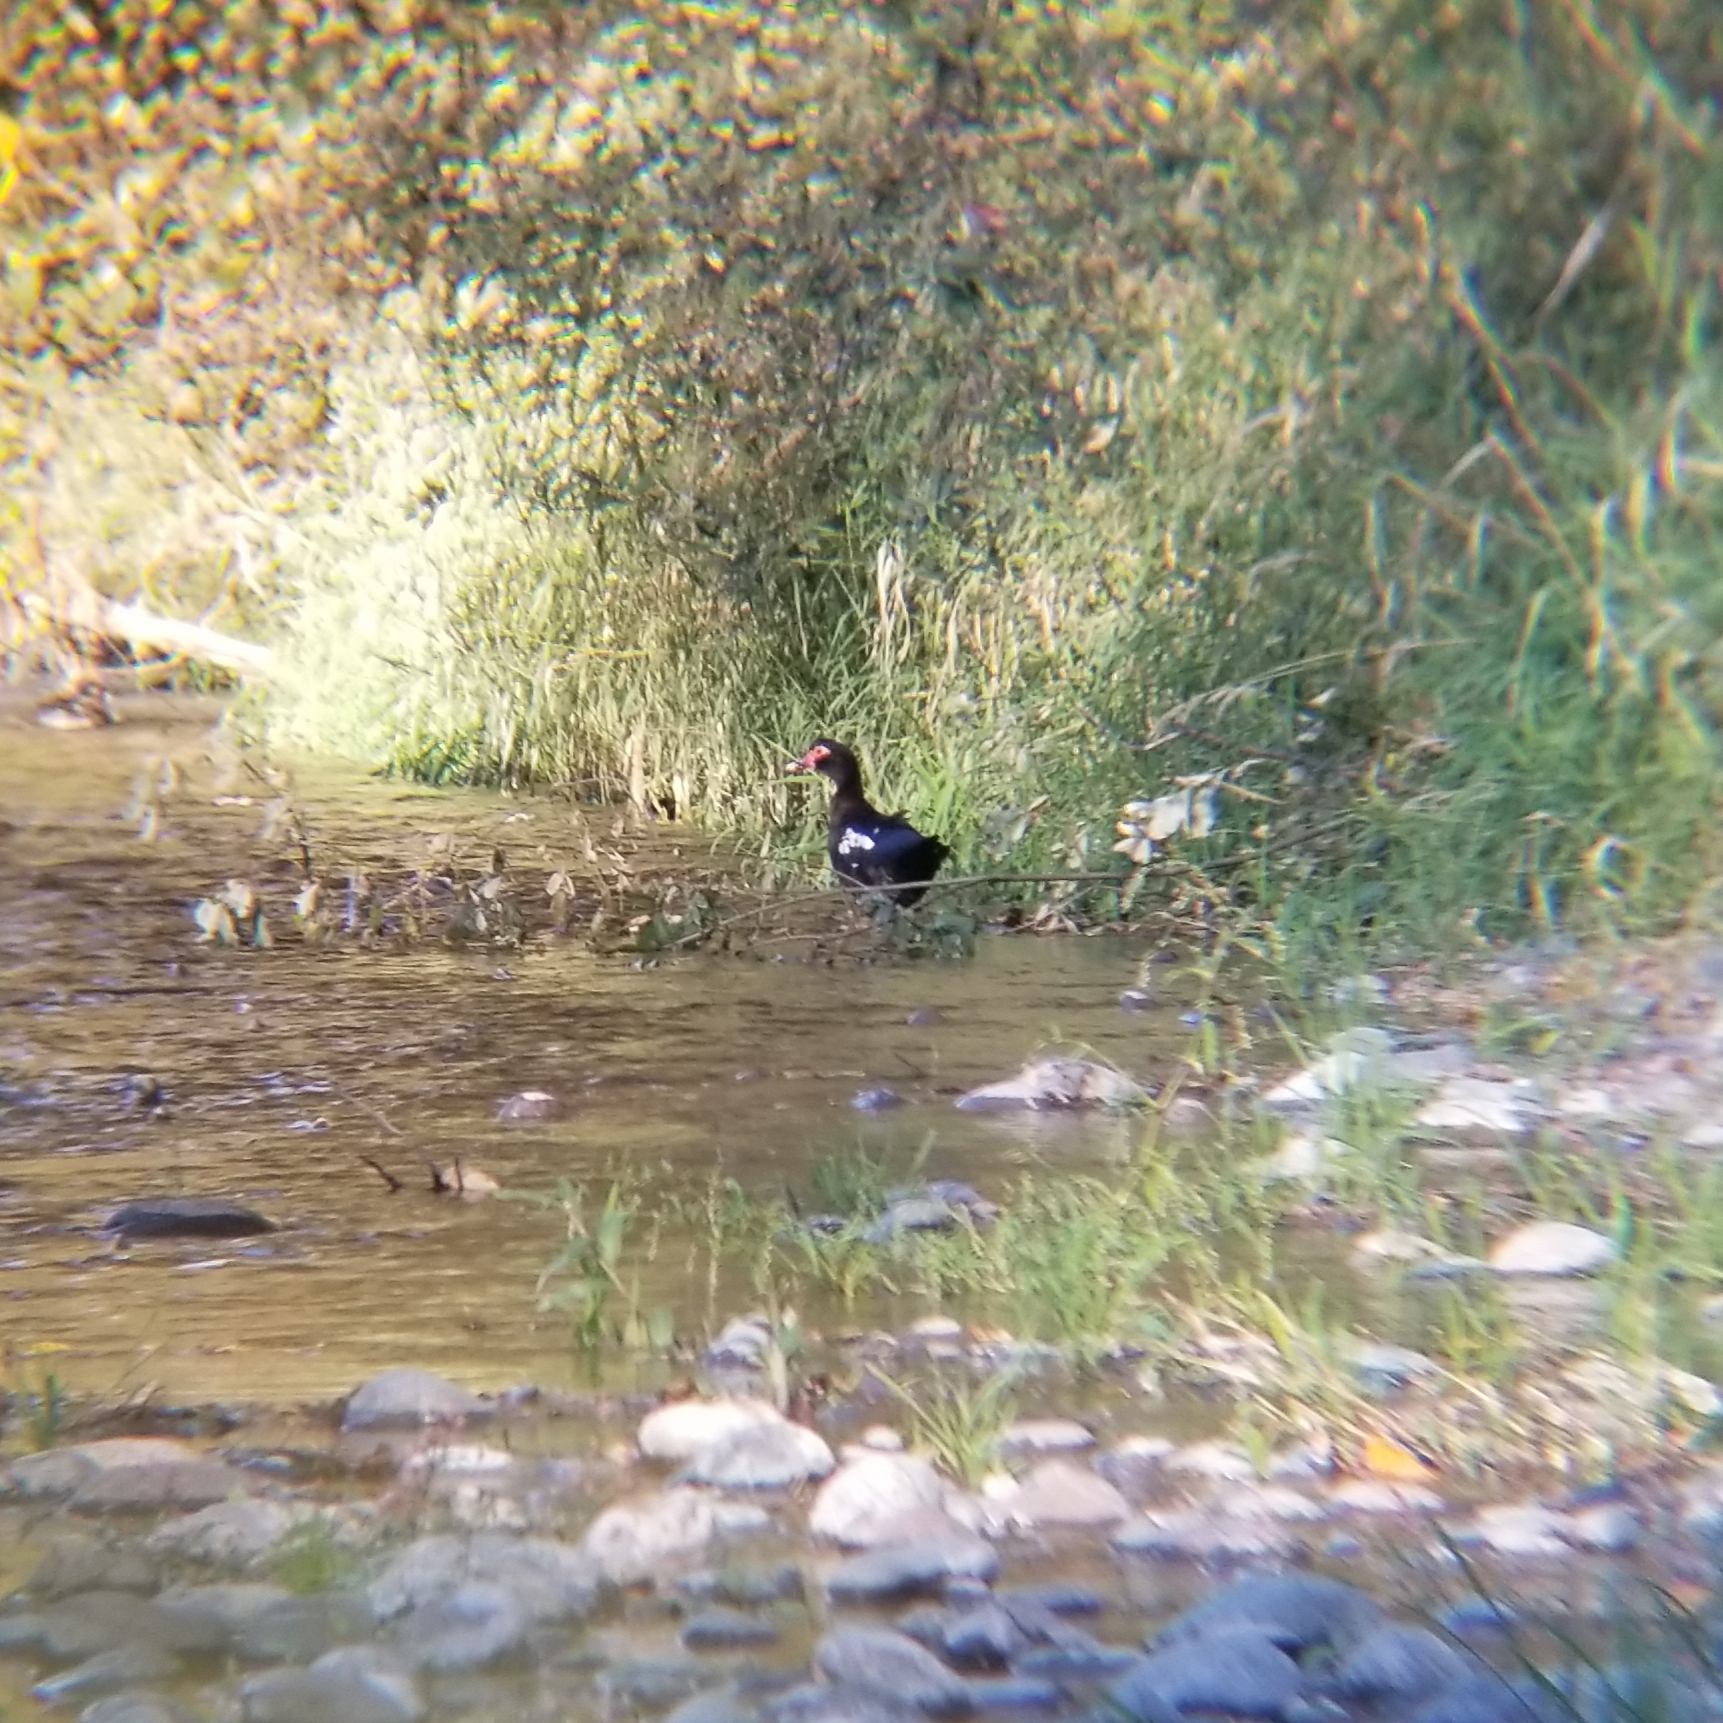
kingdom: Animalia
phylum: Chordata
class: Aves
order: Anseriformes
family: Anatidae
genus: Cairina
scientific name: Cairina moschata
